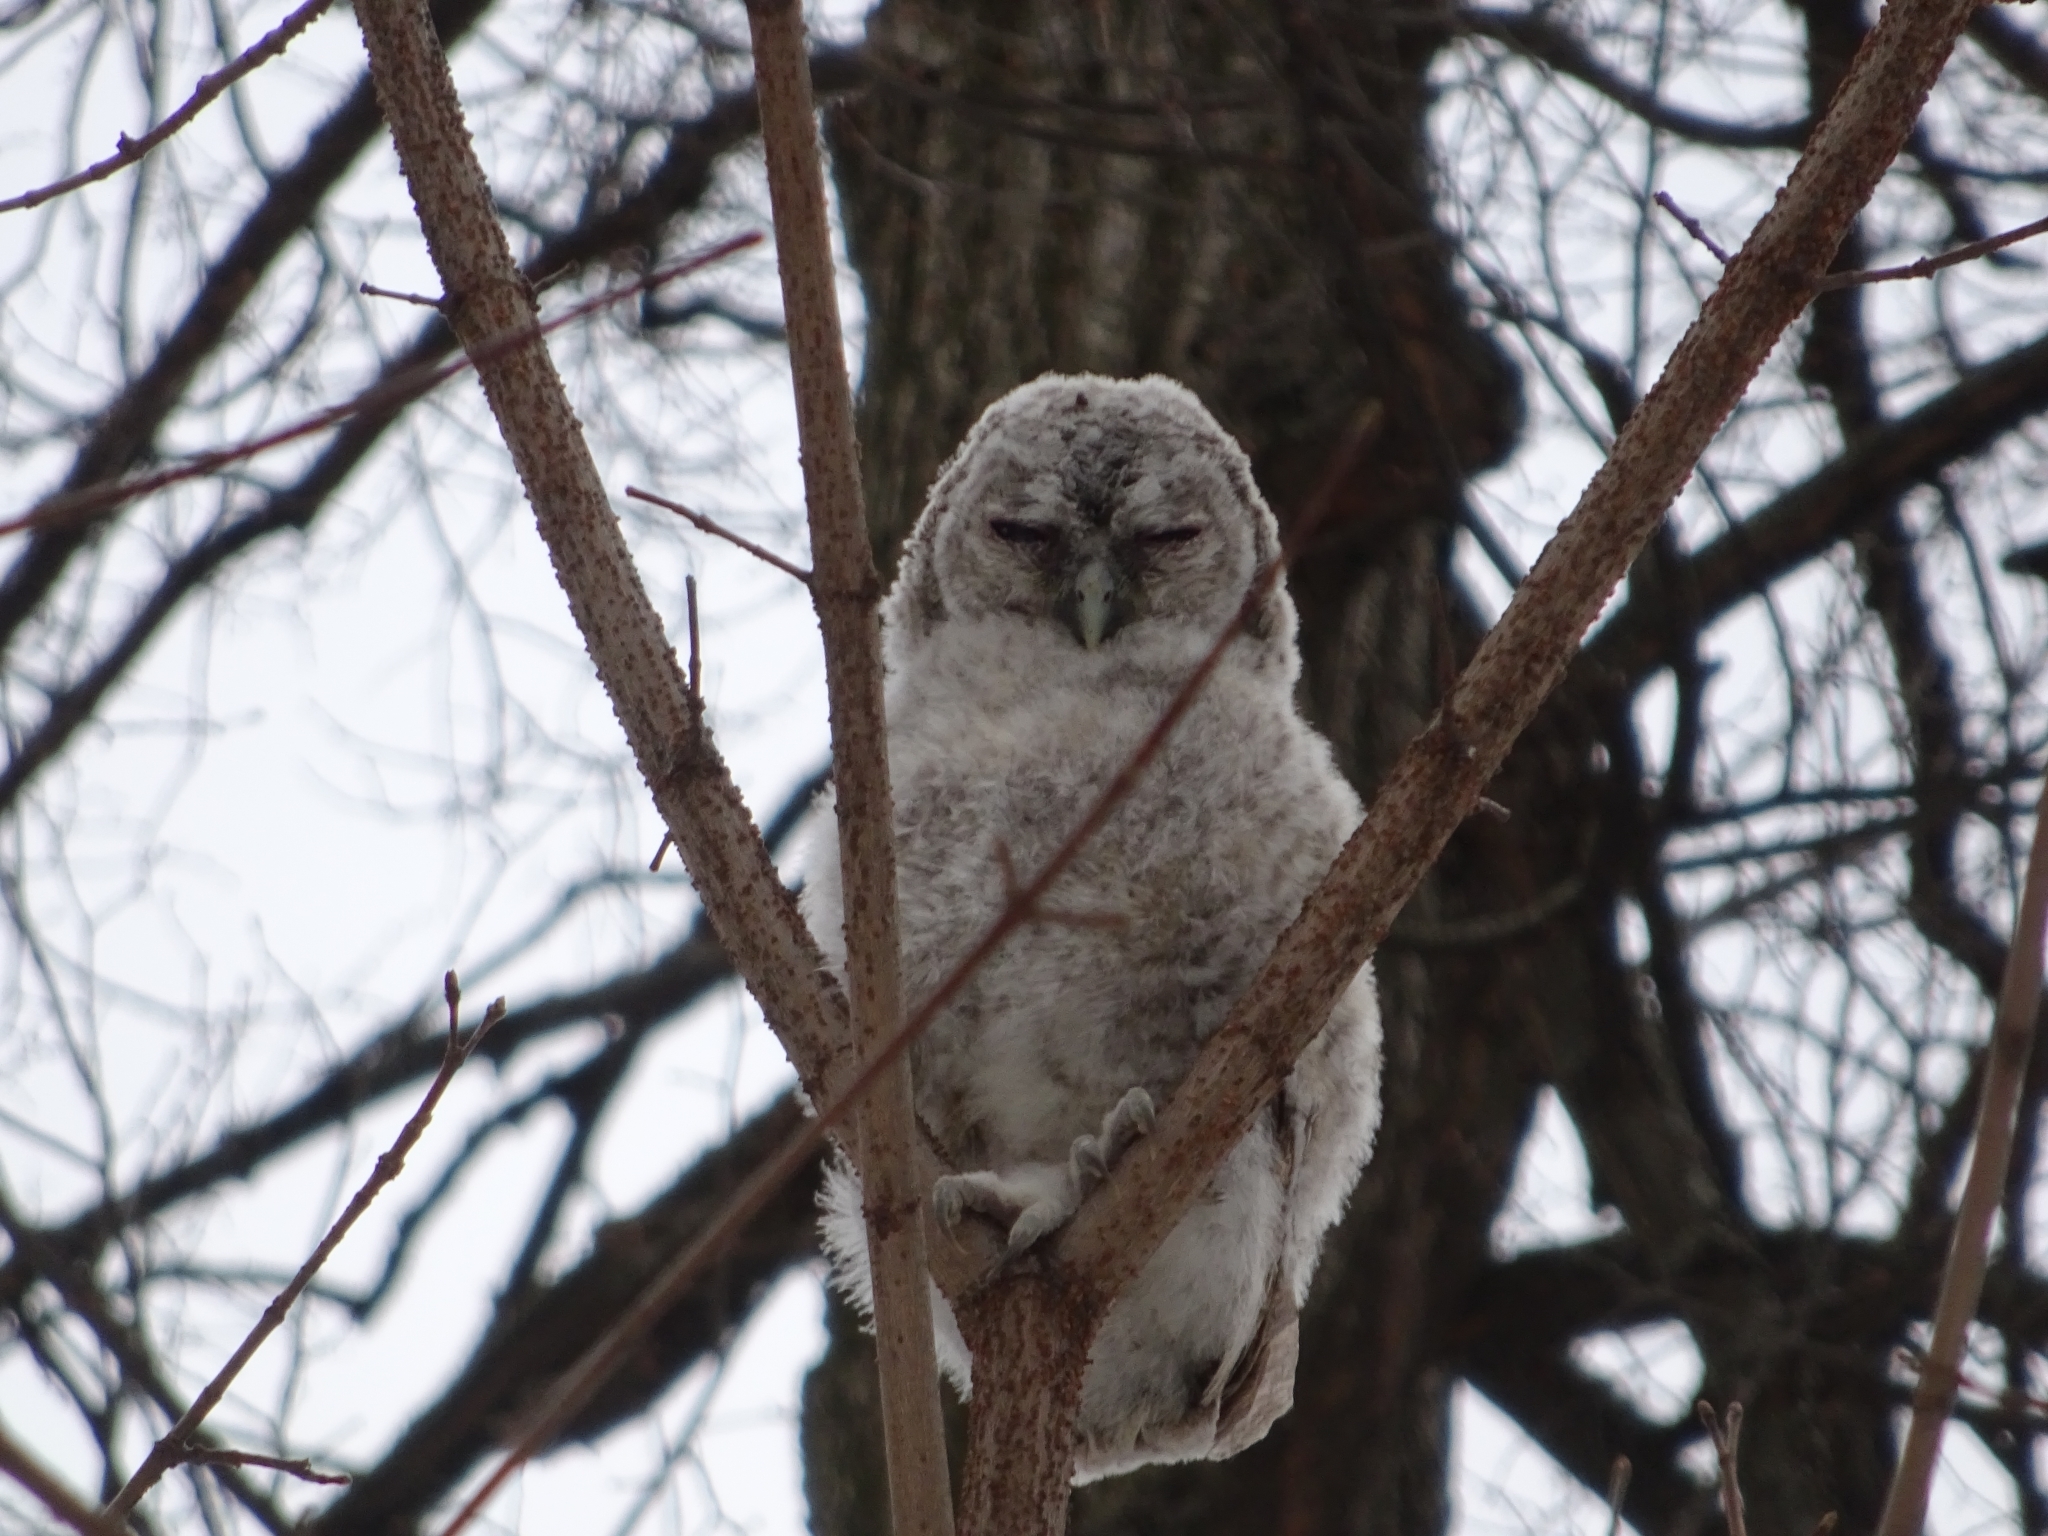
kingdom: Animalia
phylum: Chordata
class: Aves
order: Strigiformes
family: Strigidae
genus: Strix
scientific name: Strix uralensis
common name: Ural owl
